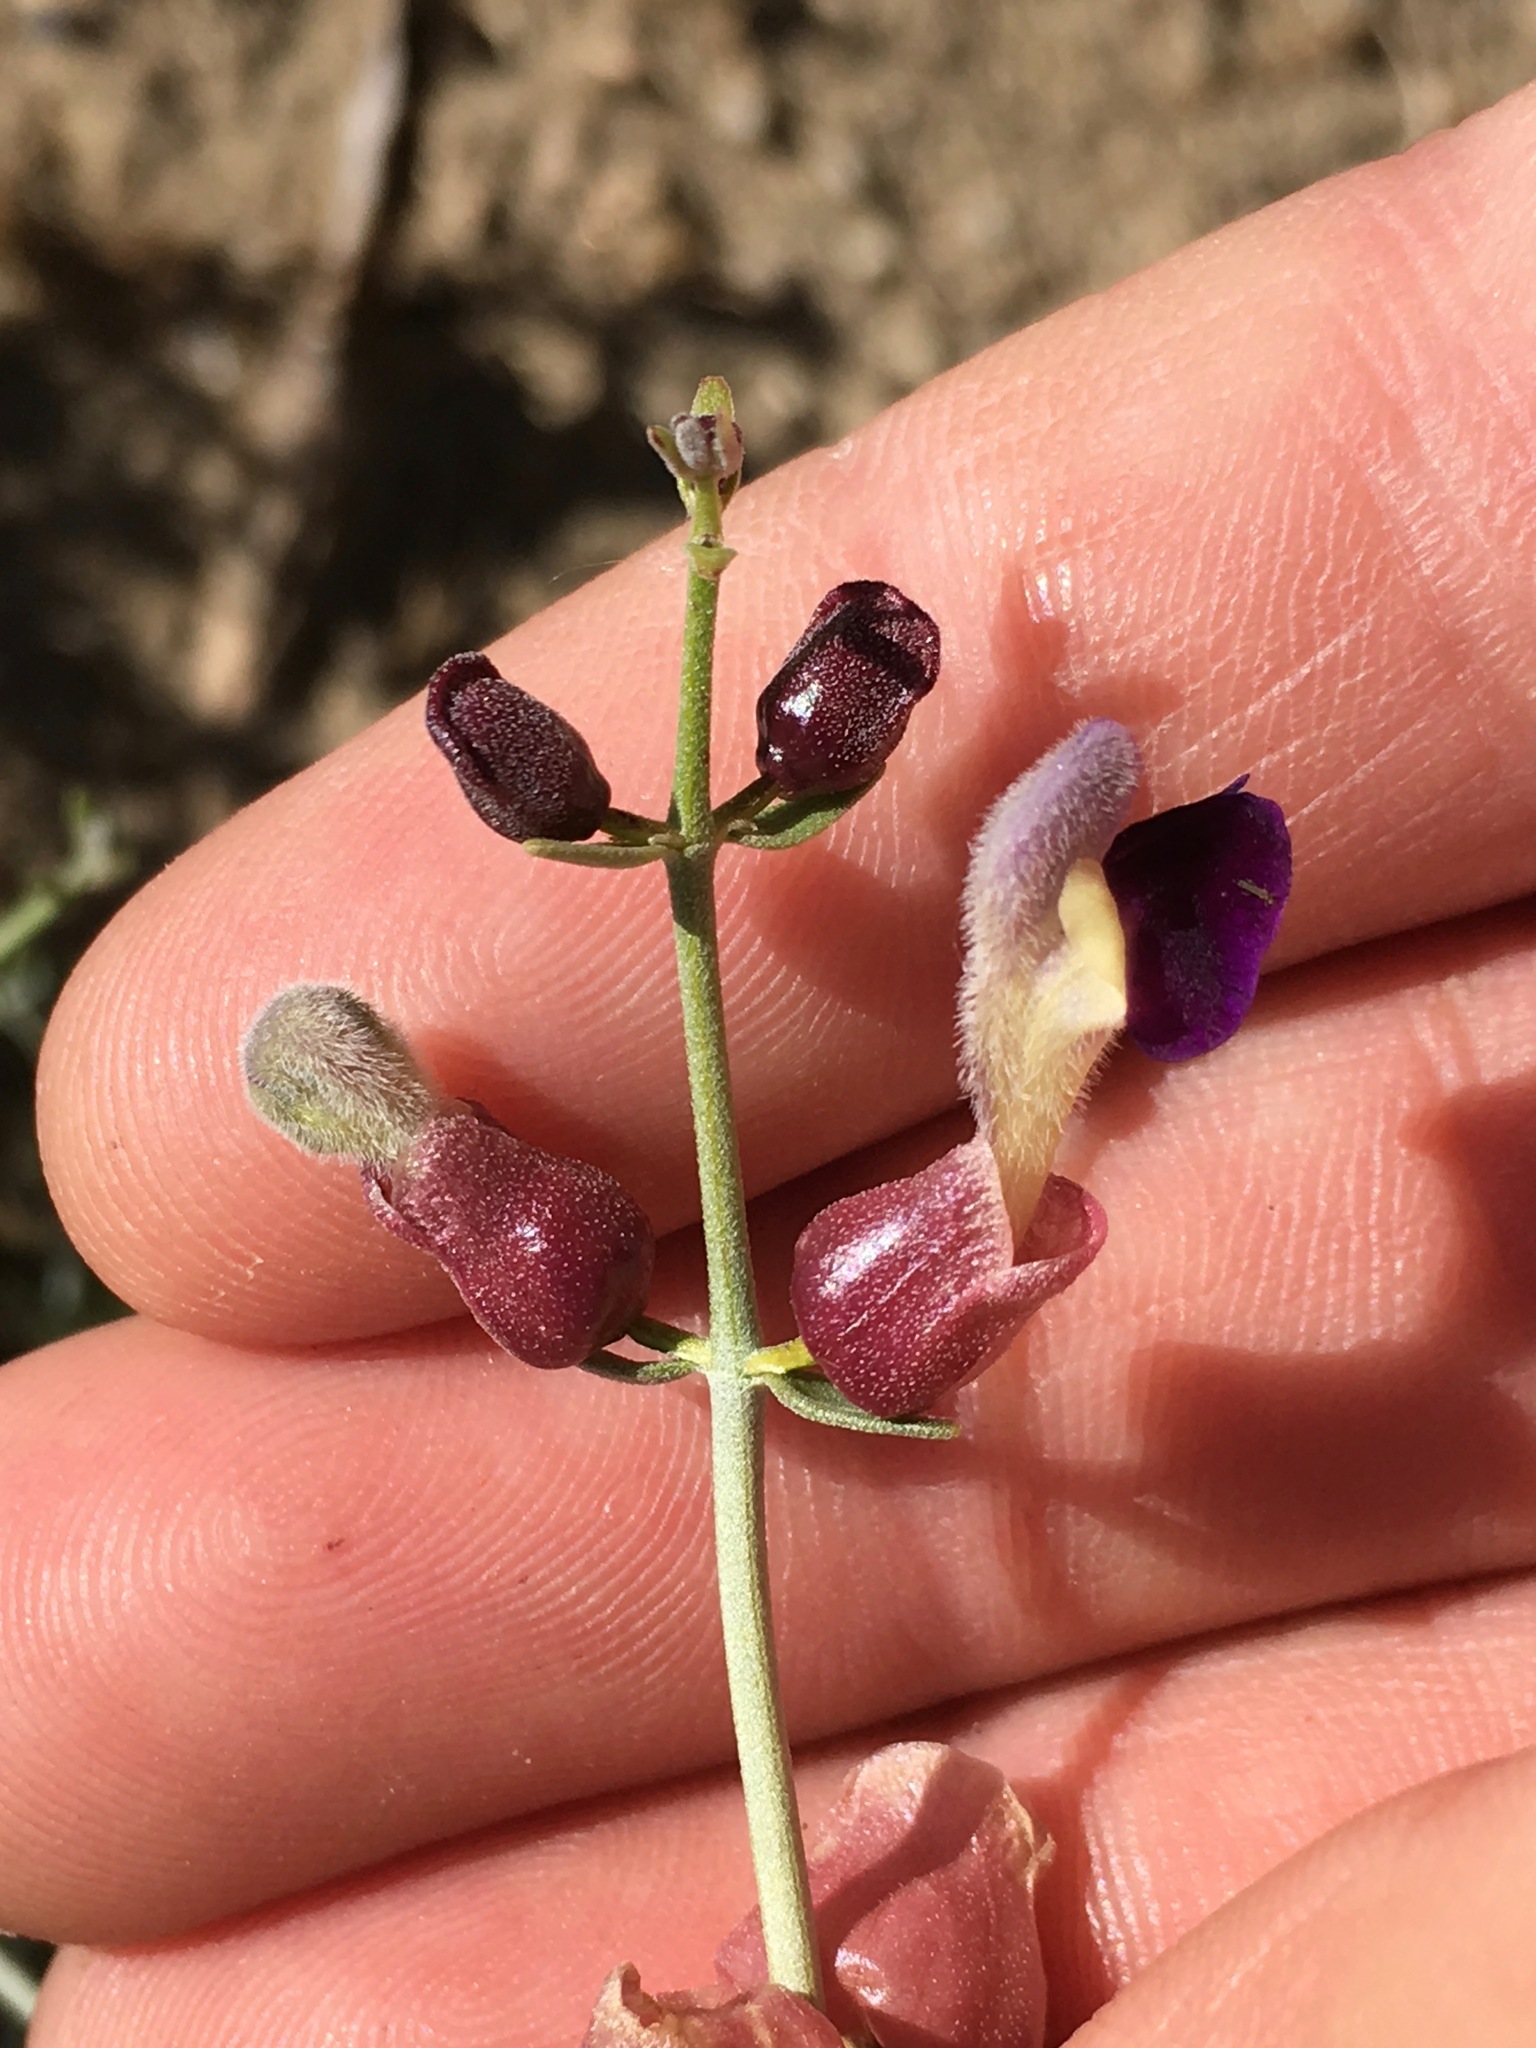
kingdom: Plantae
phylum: Tracheophyta
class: Magnoliopsida
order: Lamiales
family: Lamiaceae
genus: Scutellaria
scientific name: Scutellaria mexicana
